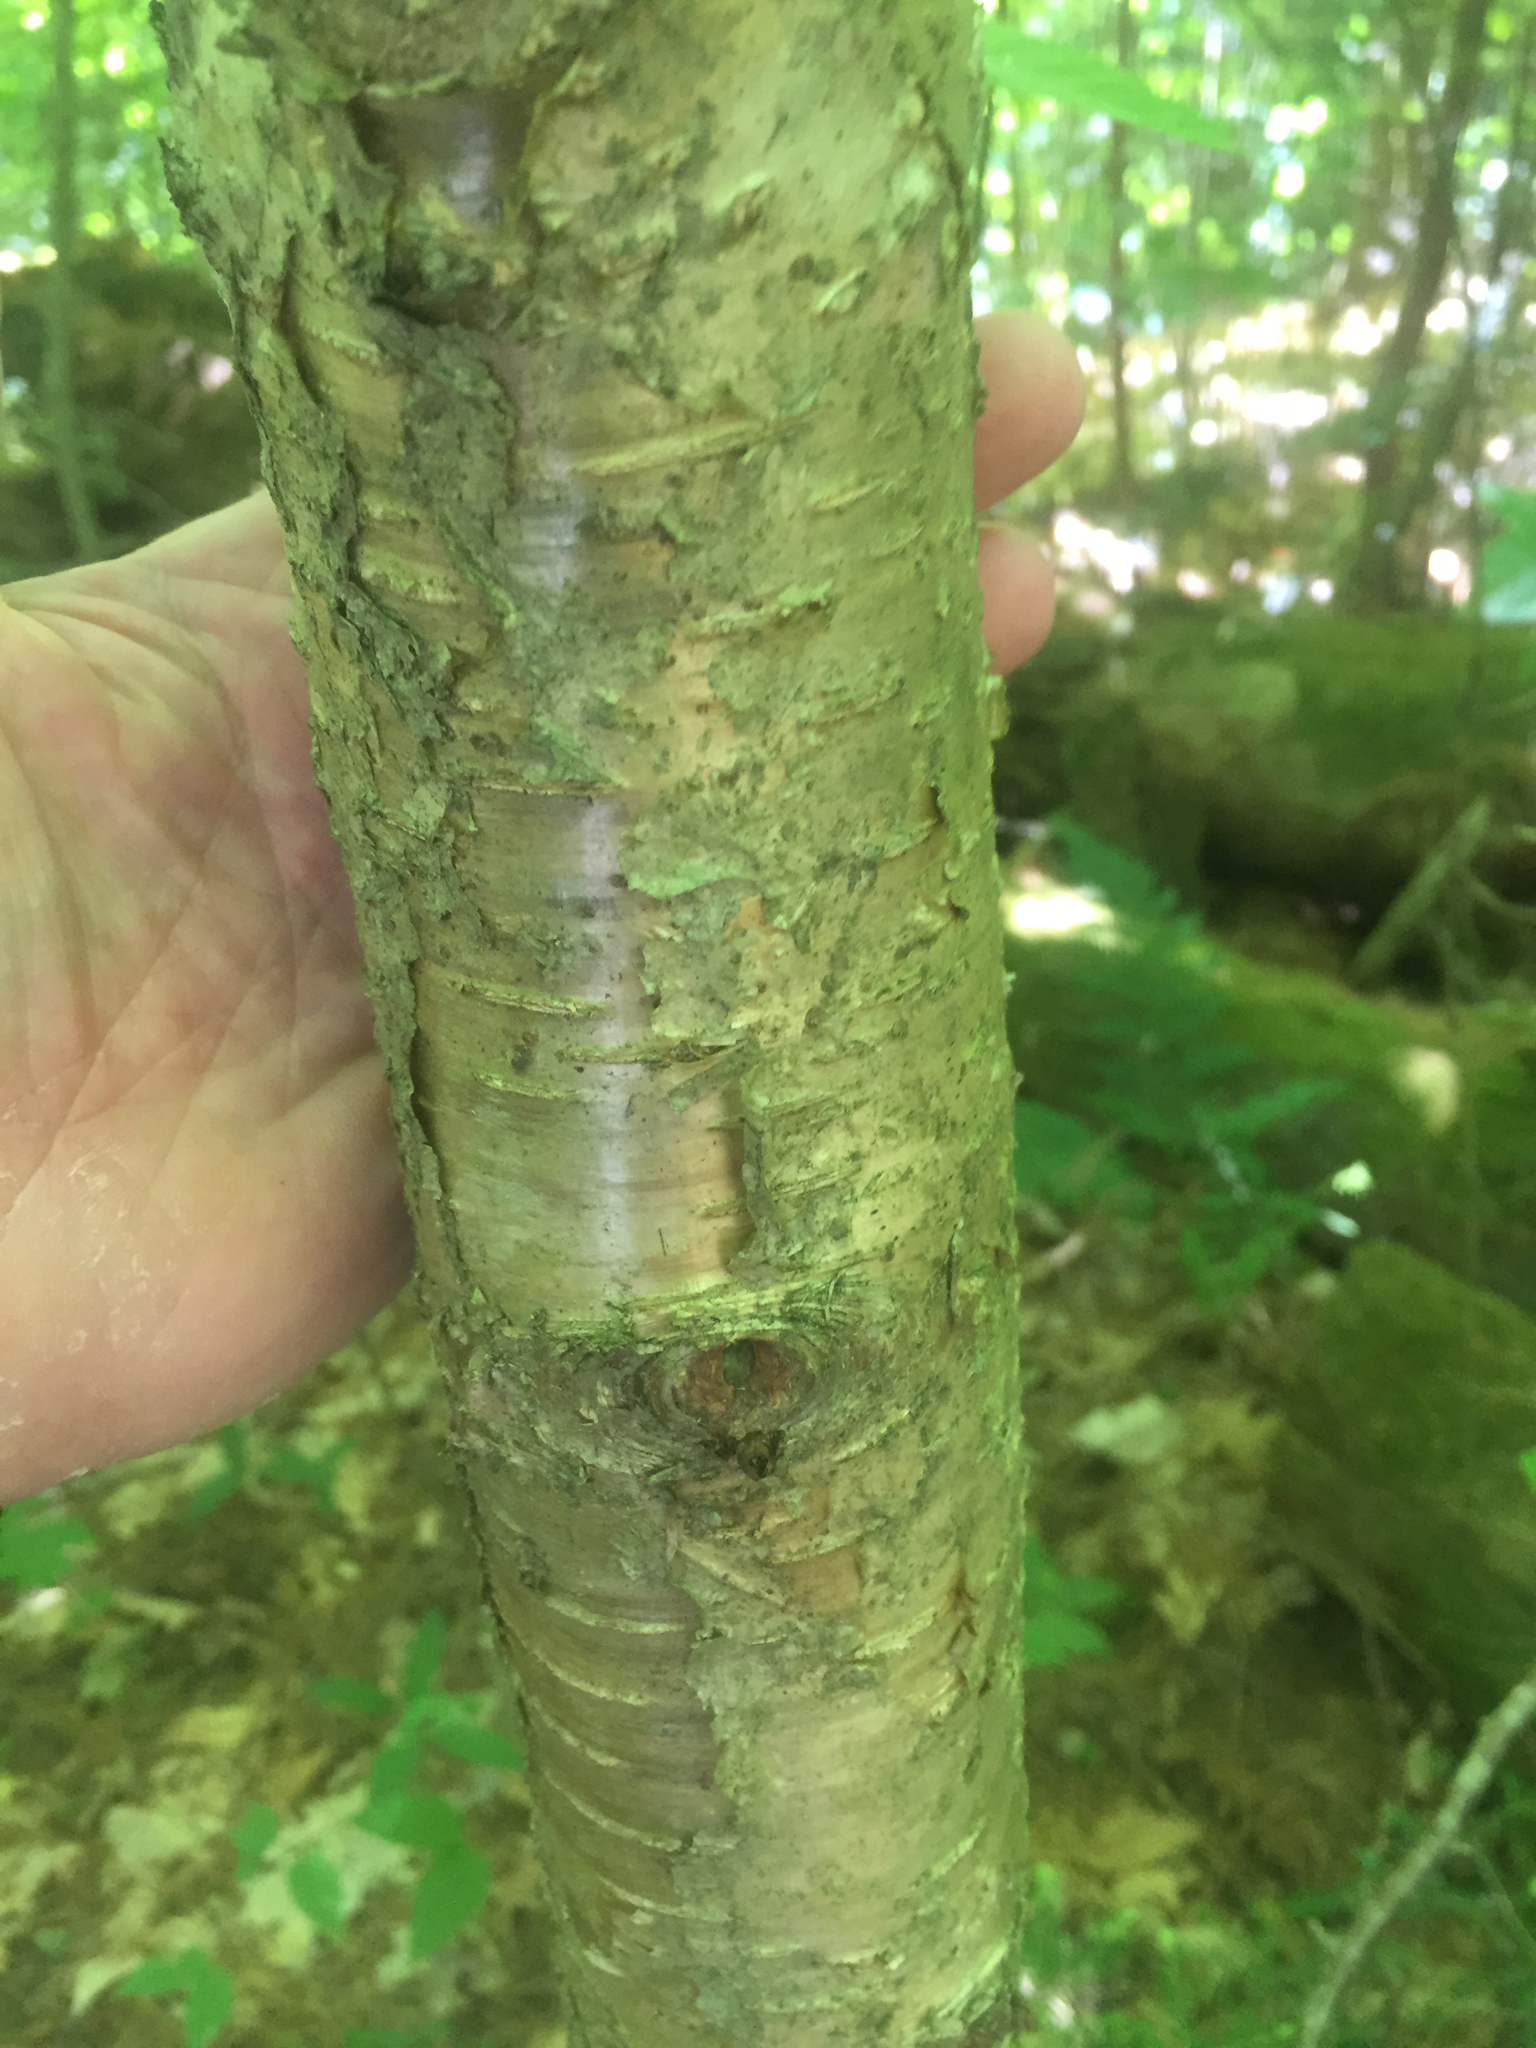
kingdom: Plantae
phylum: Tracheophyta
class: Magnoliopsida
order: Fagales
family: Betulaceae
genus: Betula
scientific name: Betula alleghaniensis
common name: Yellow birch
